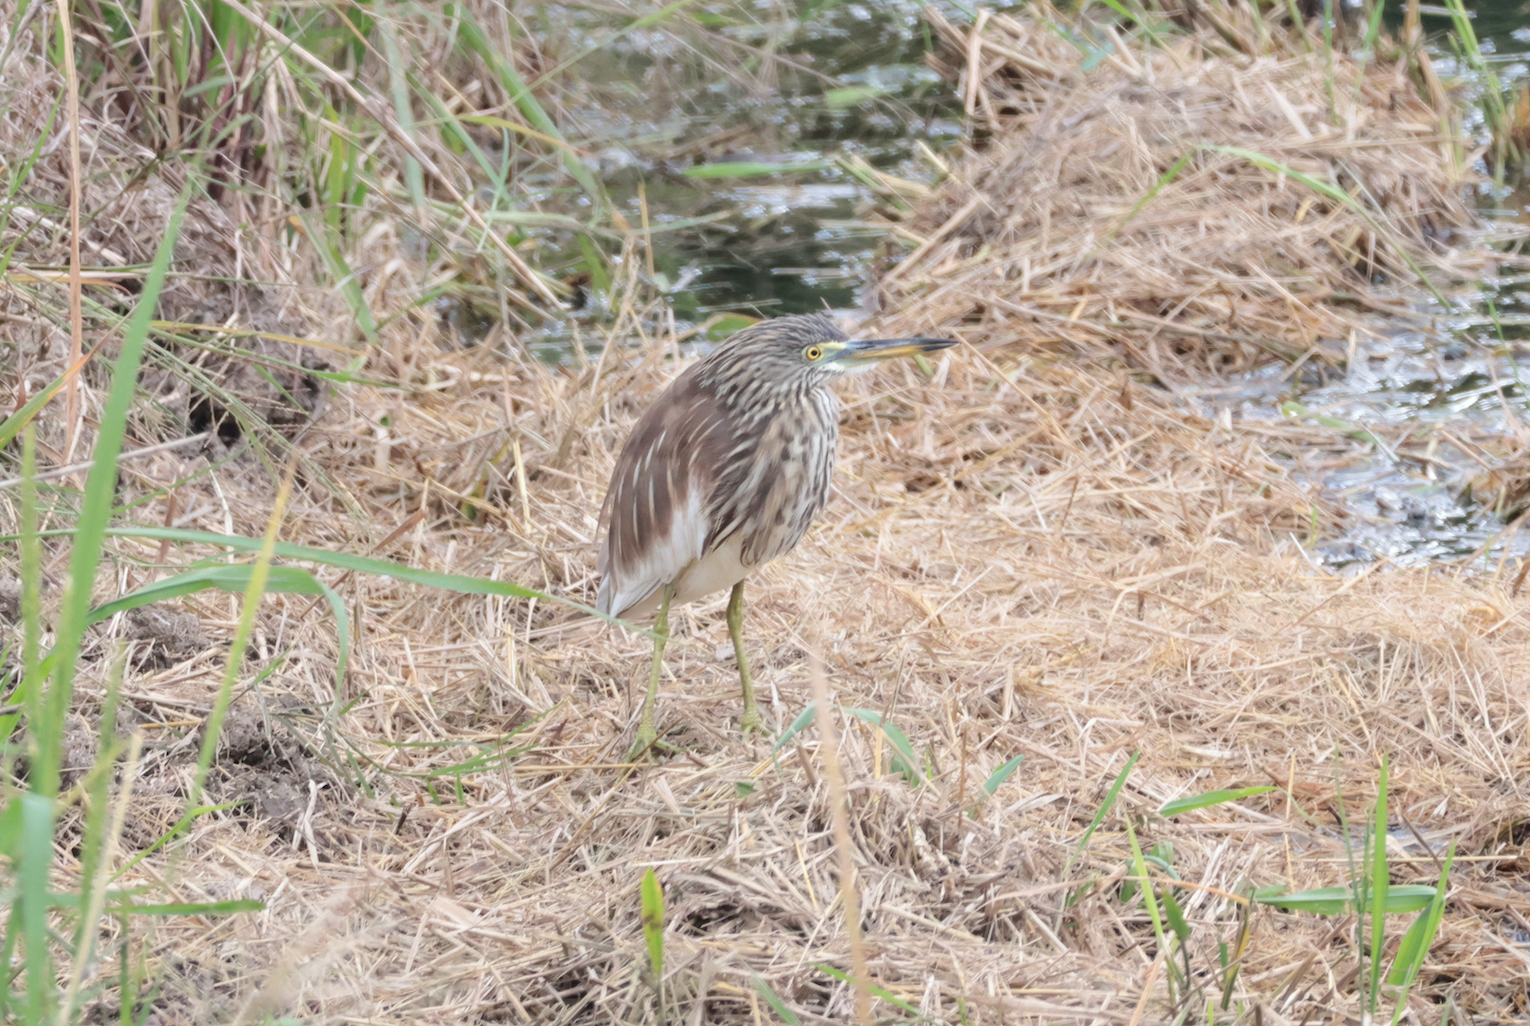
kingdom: Animalia
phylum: Chordata
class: Aves
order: Pelecaniformes
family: Ardeidae
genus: Ardeola
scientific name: Ardeola bacchus
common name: Chinese pond heron
